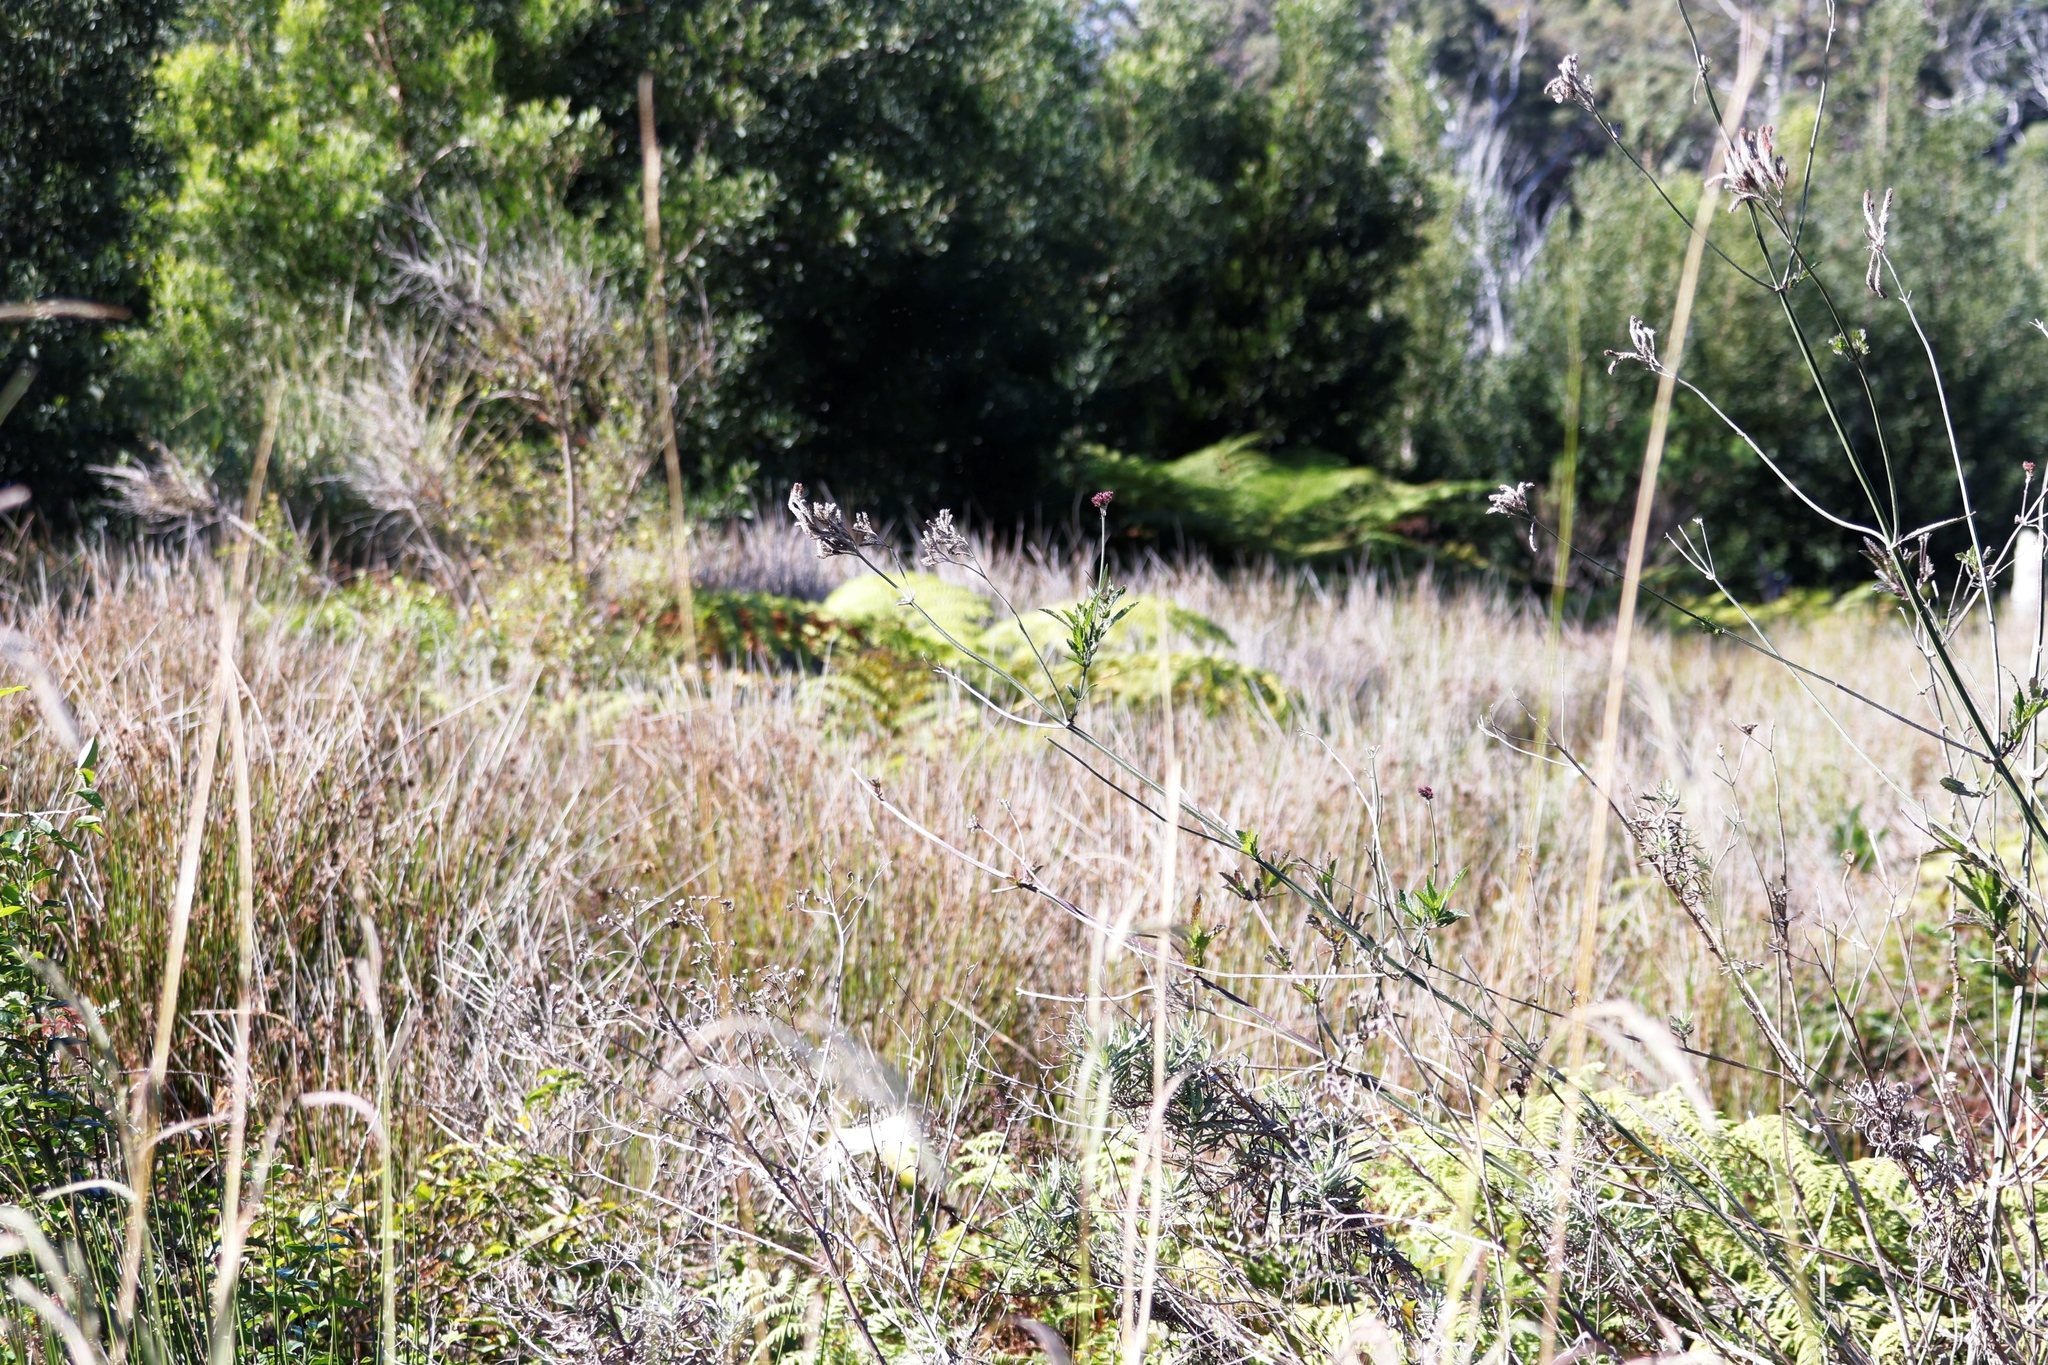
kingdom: Plantae
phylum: Tracheophyta
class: Polypodiopsida
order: Cyatheales
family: Cyatheaceae
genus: Sphaeropteris
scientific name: Sphaeropteris cooperi
